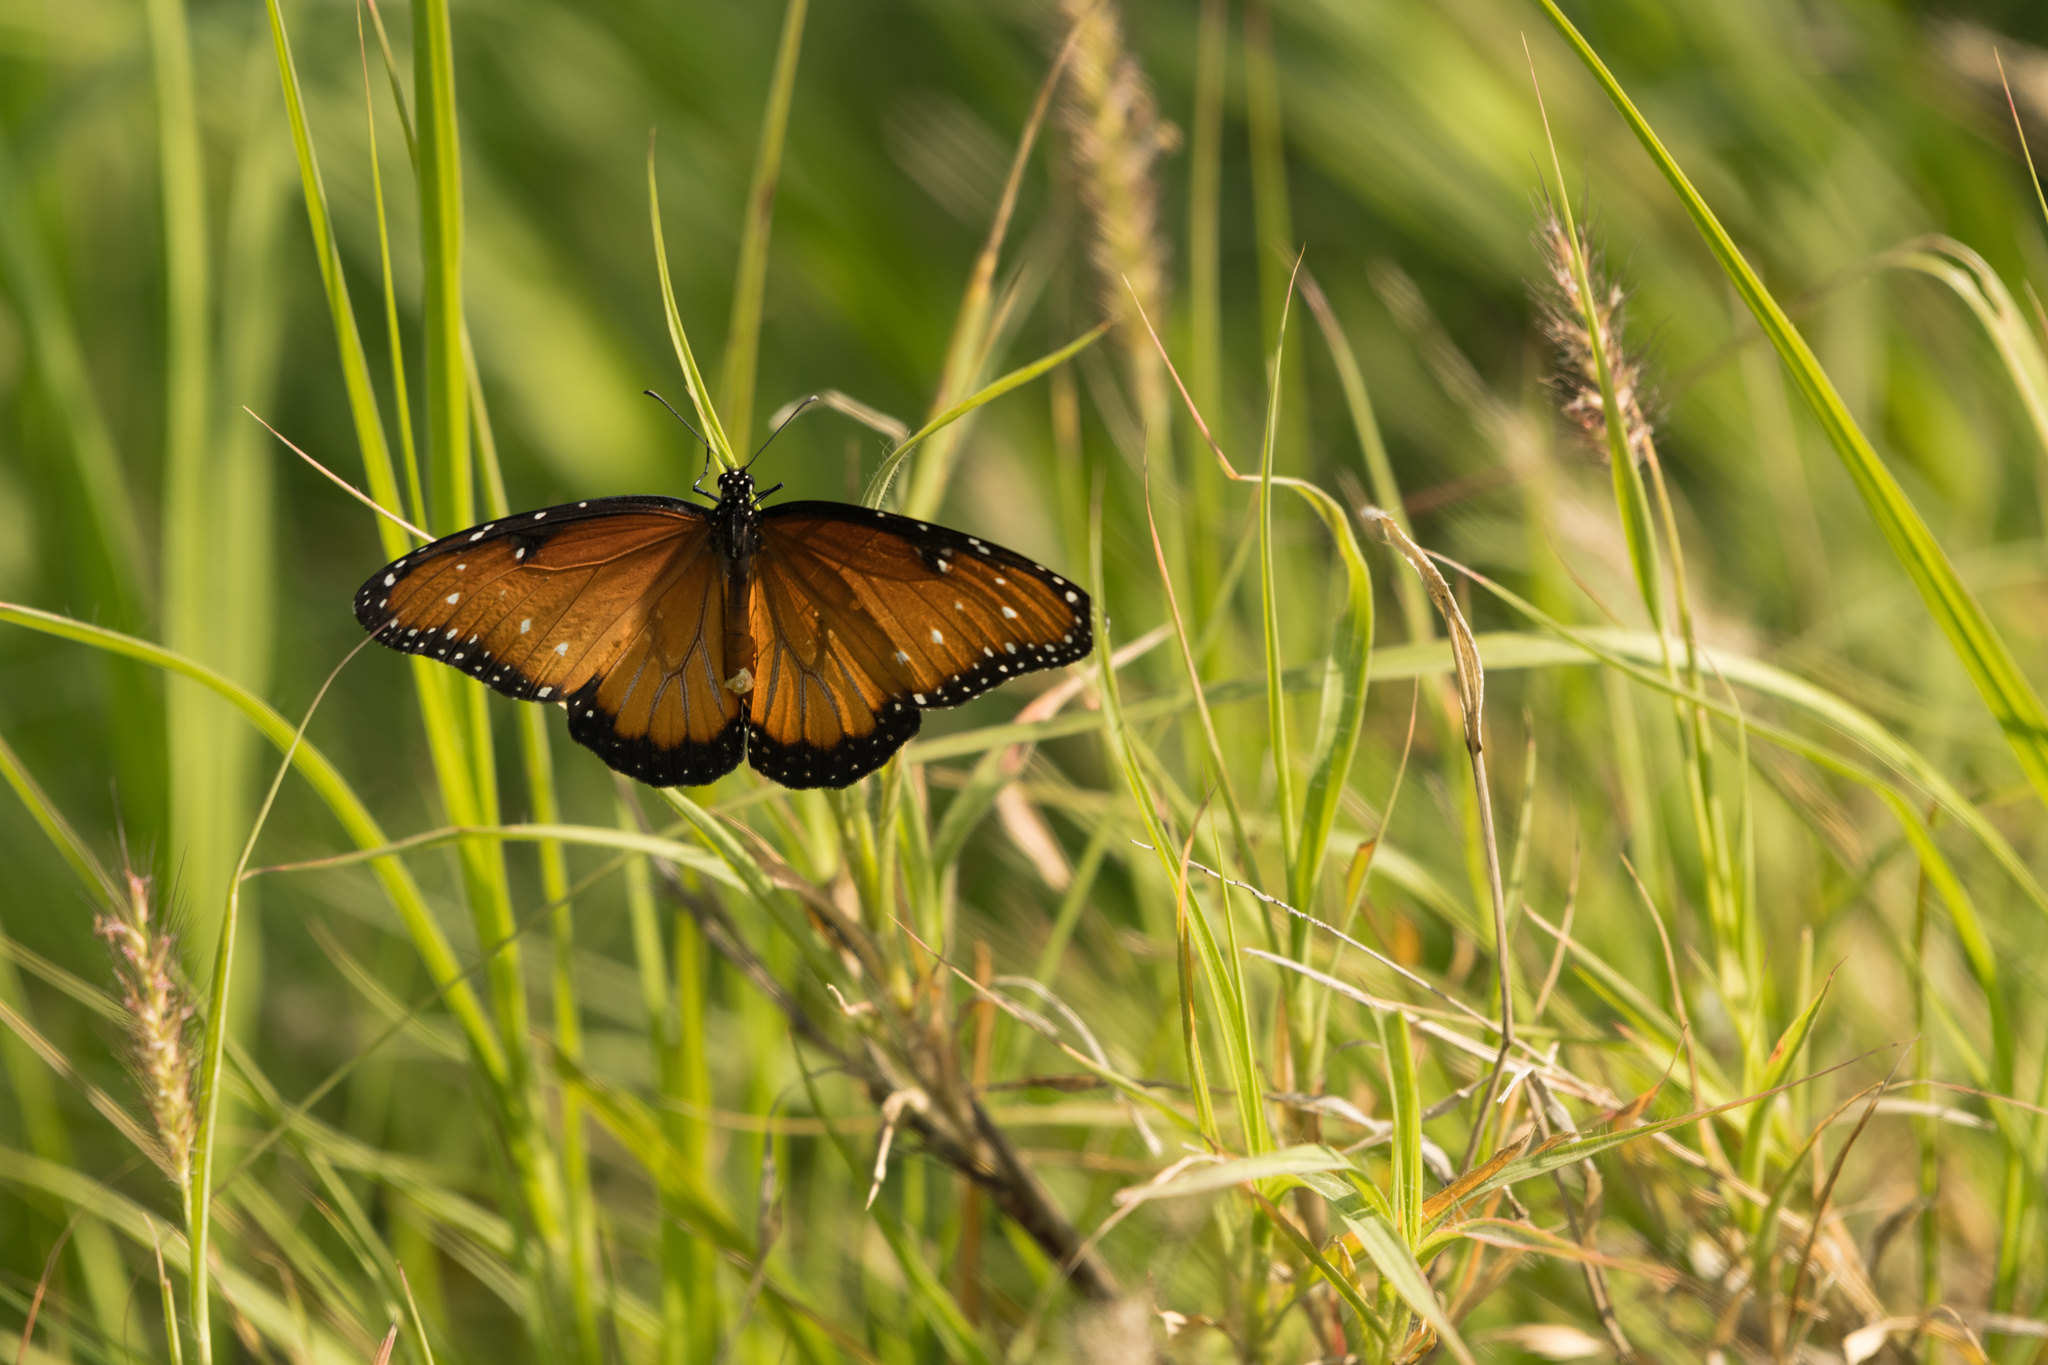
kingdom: Animalia
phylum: Arthropoda
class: Insecta
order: Lepidoptera
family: Nymphalidae
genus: Danaus
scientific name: Danaus gilippus
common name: Queen
